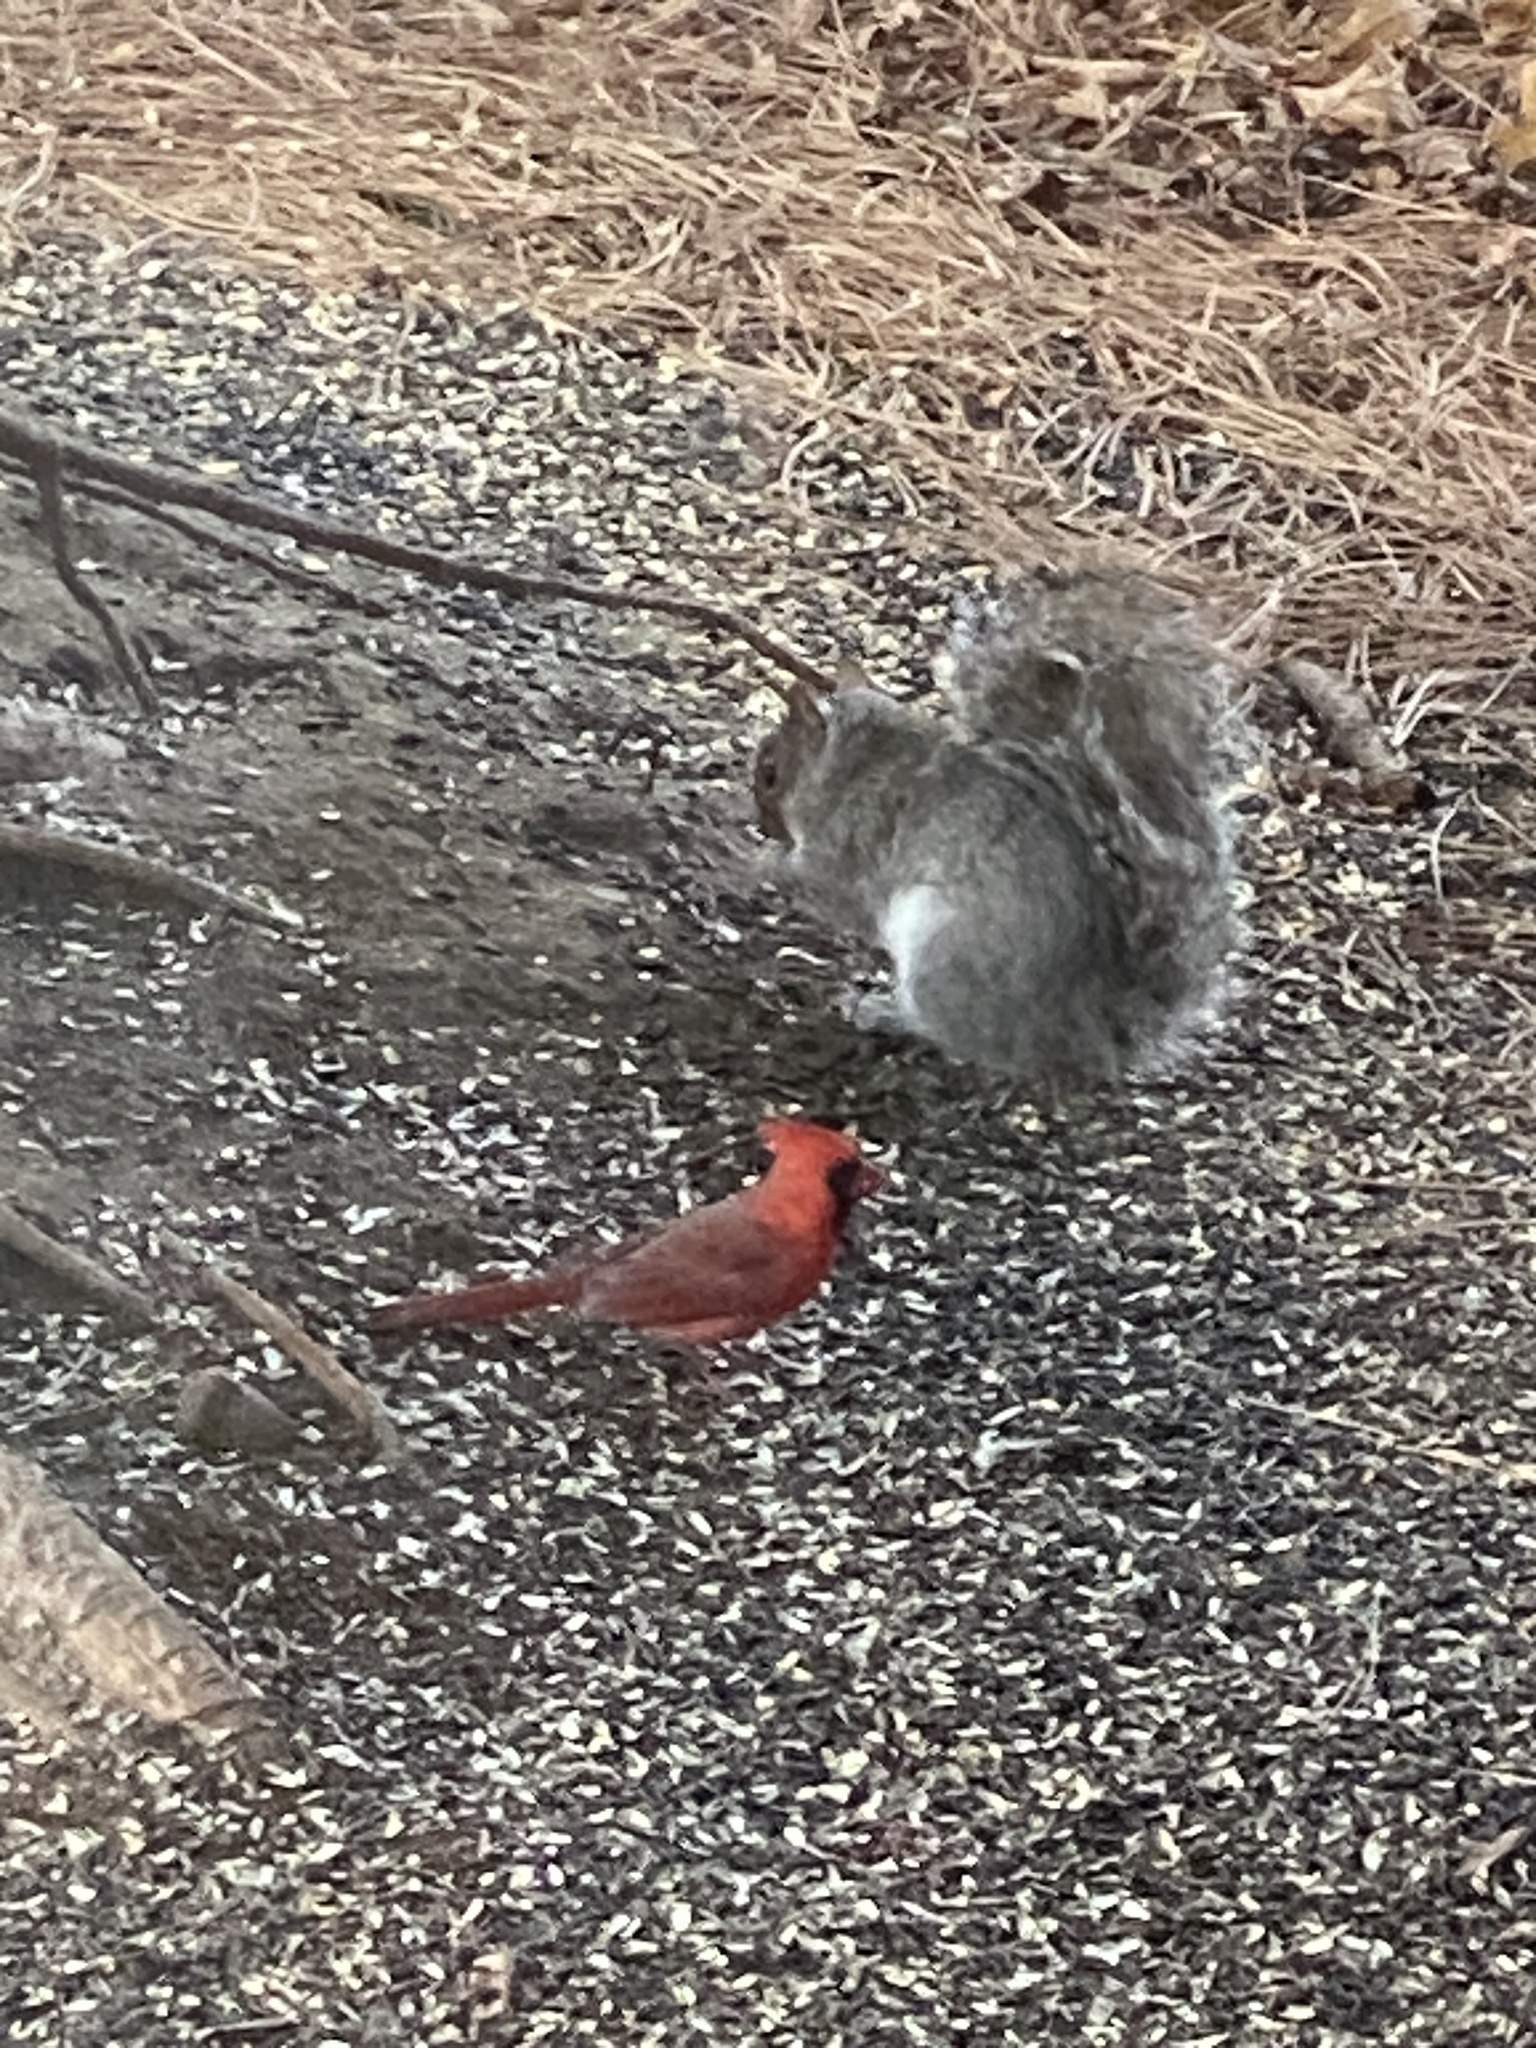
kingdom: Animalia
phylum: Chordata
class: Aves
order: Passeriformes
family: Cardinalidae
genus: Cardinalis
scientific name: Cardinalis cardinalis
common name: Northern cardinal
